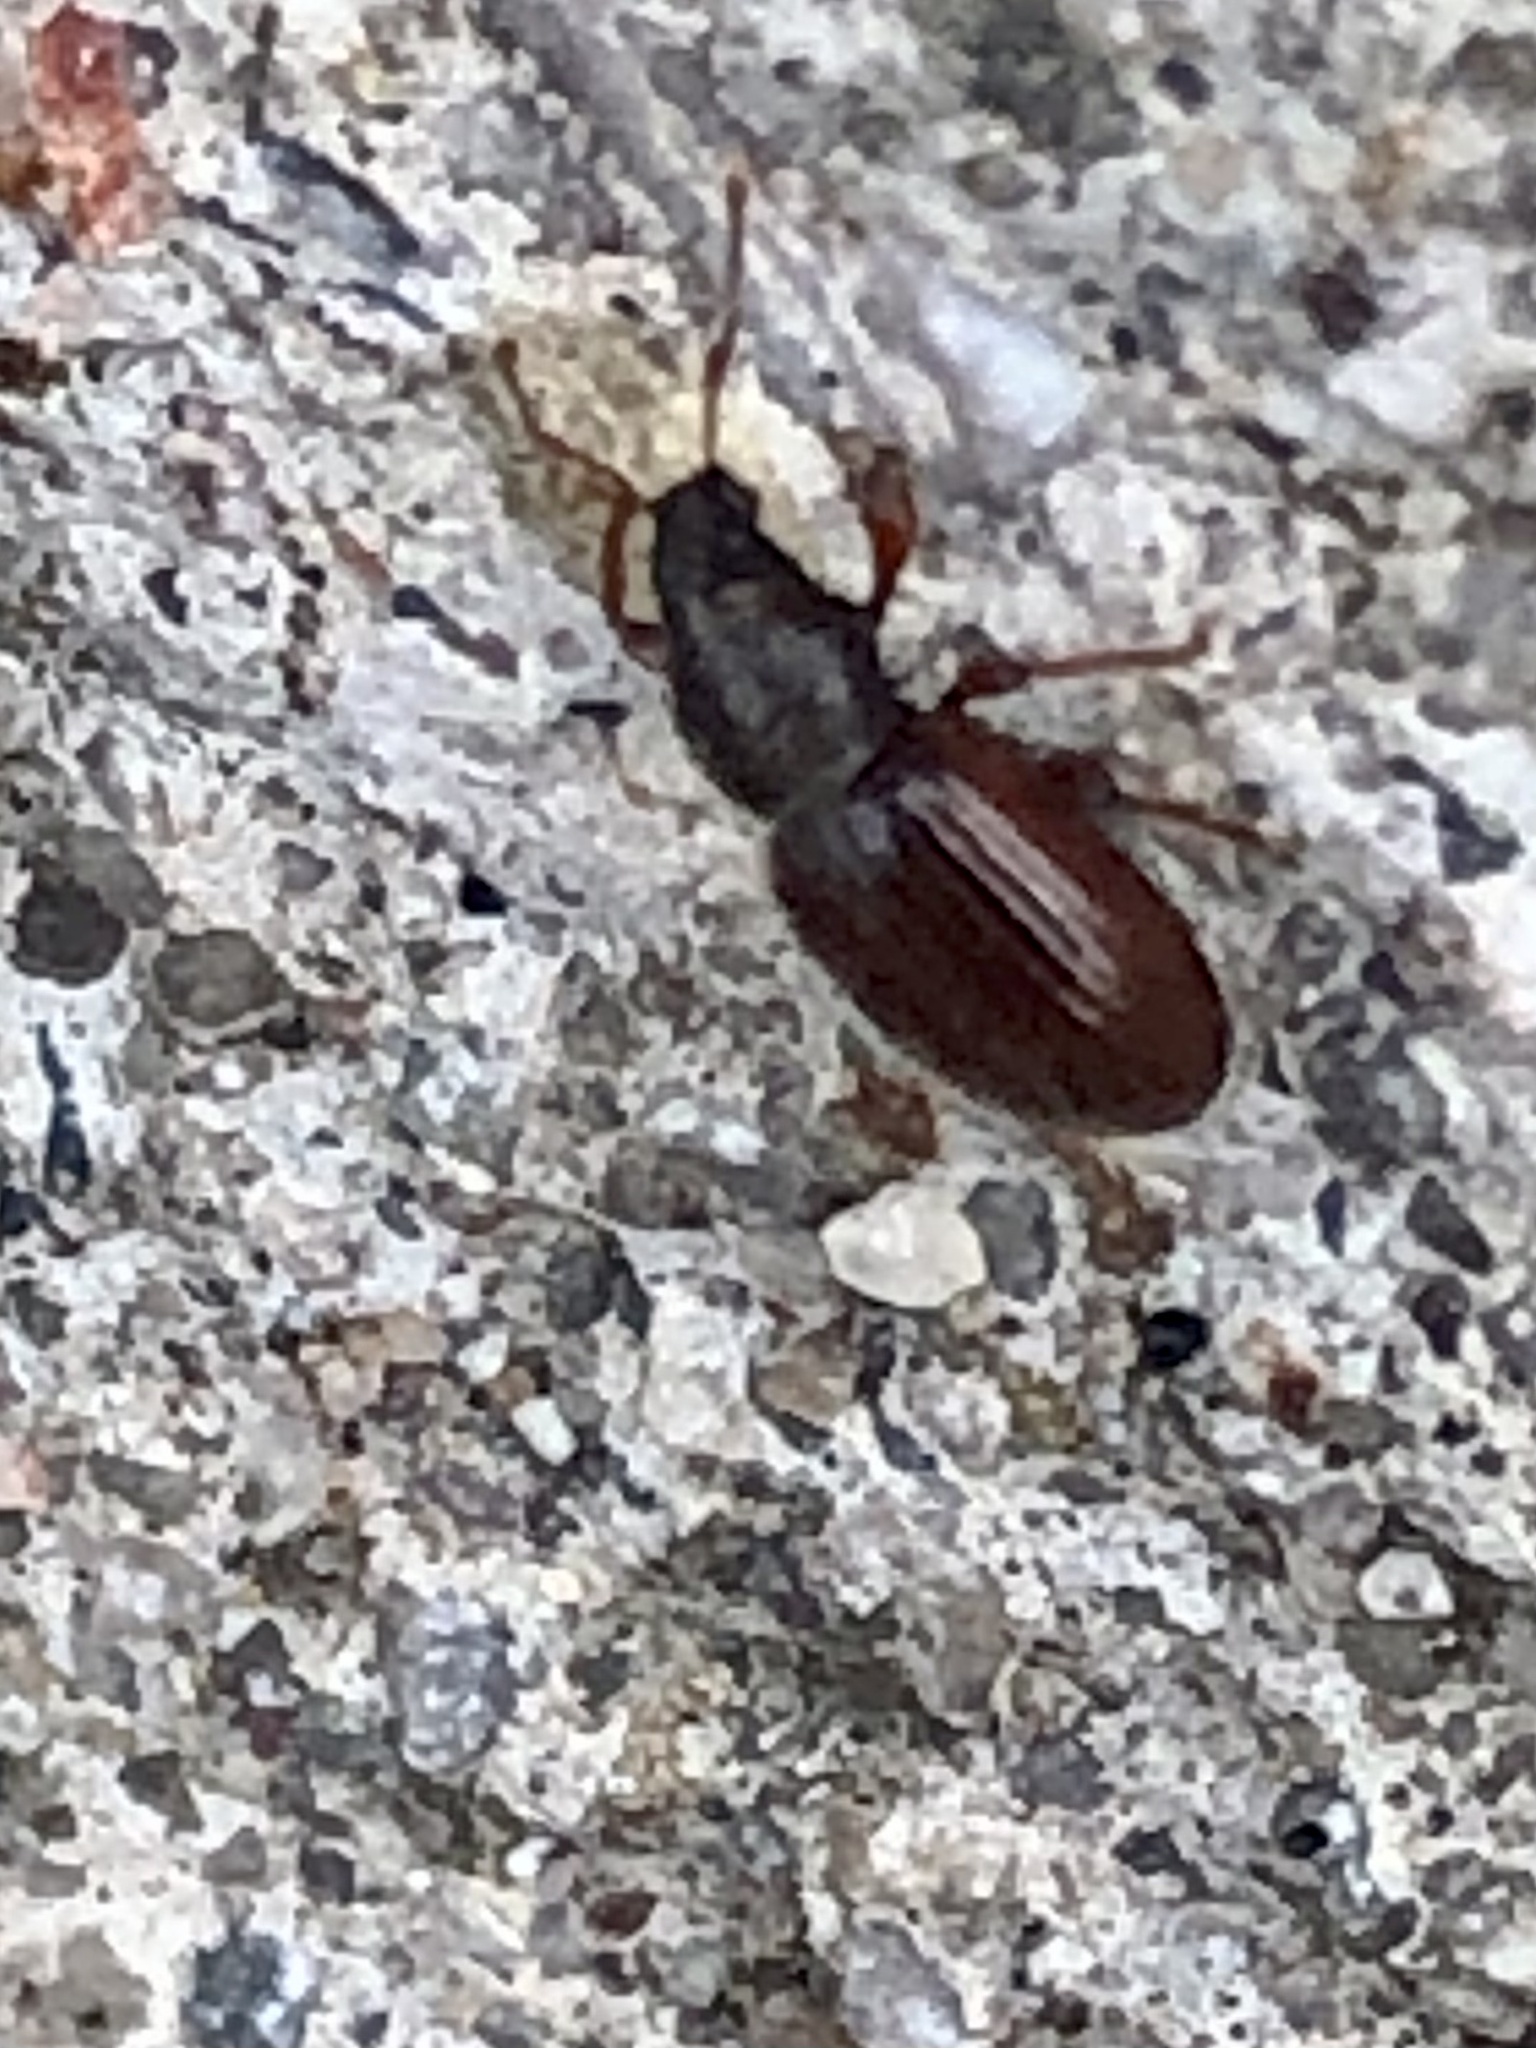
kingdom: Animalia
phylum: Arthropoda
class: Insecta
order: Coleoptera
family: Curculionidae
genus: Phyllobius
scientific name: Phyllobius oblongus
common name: Brown leaf weevil
